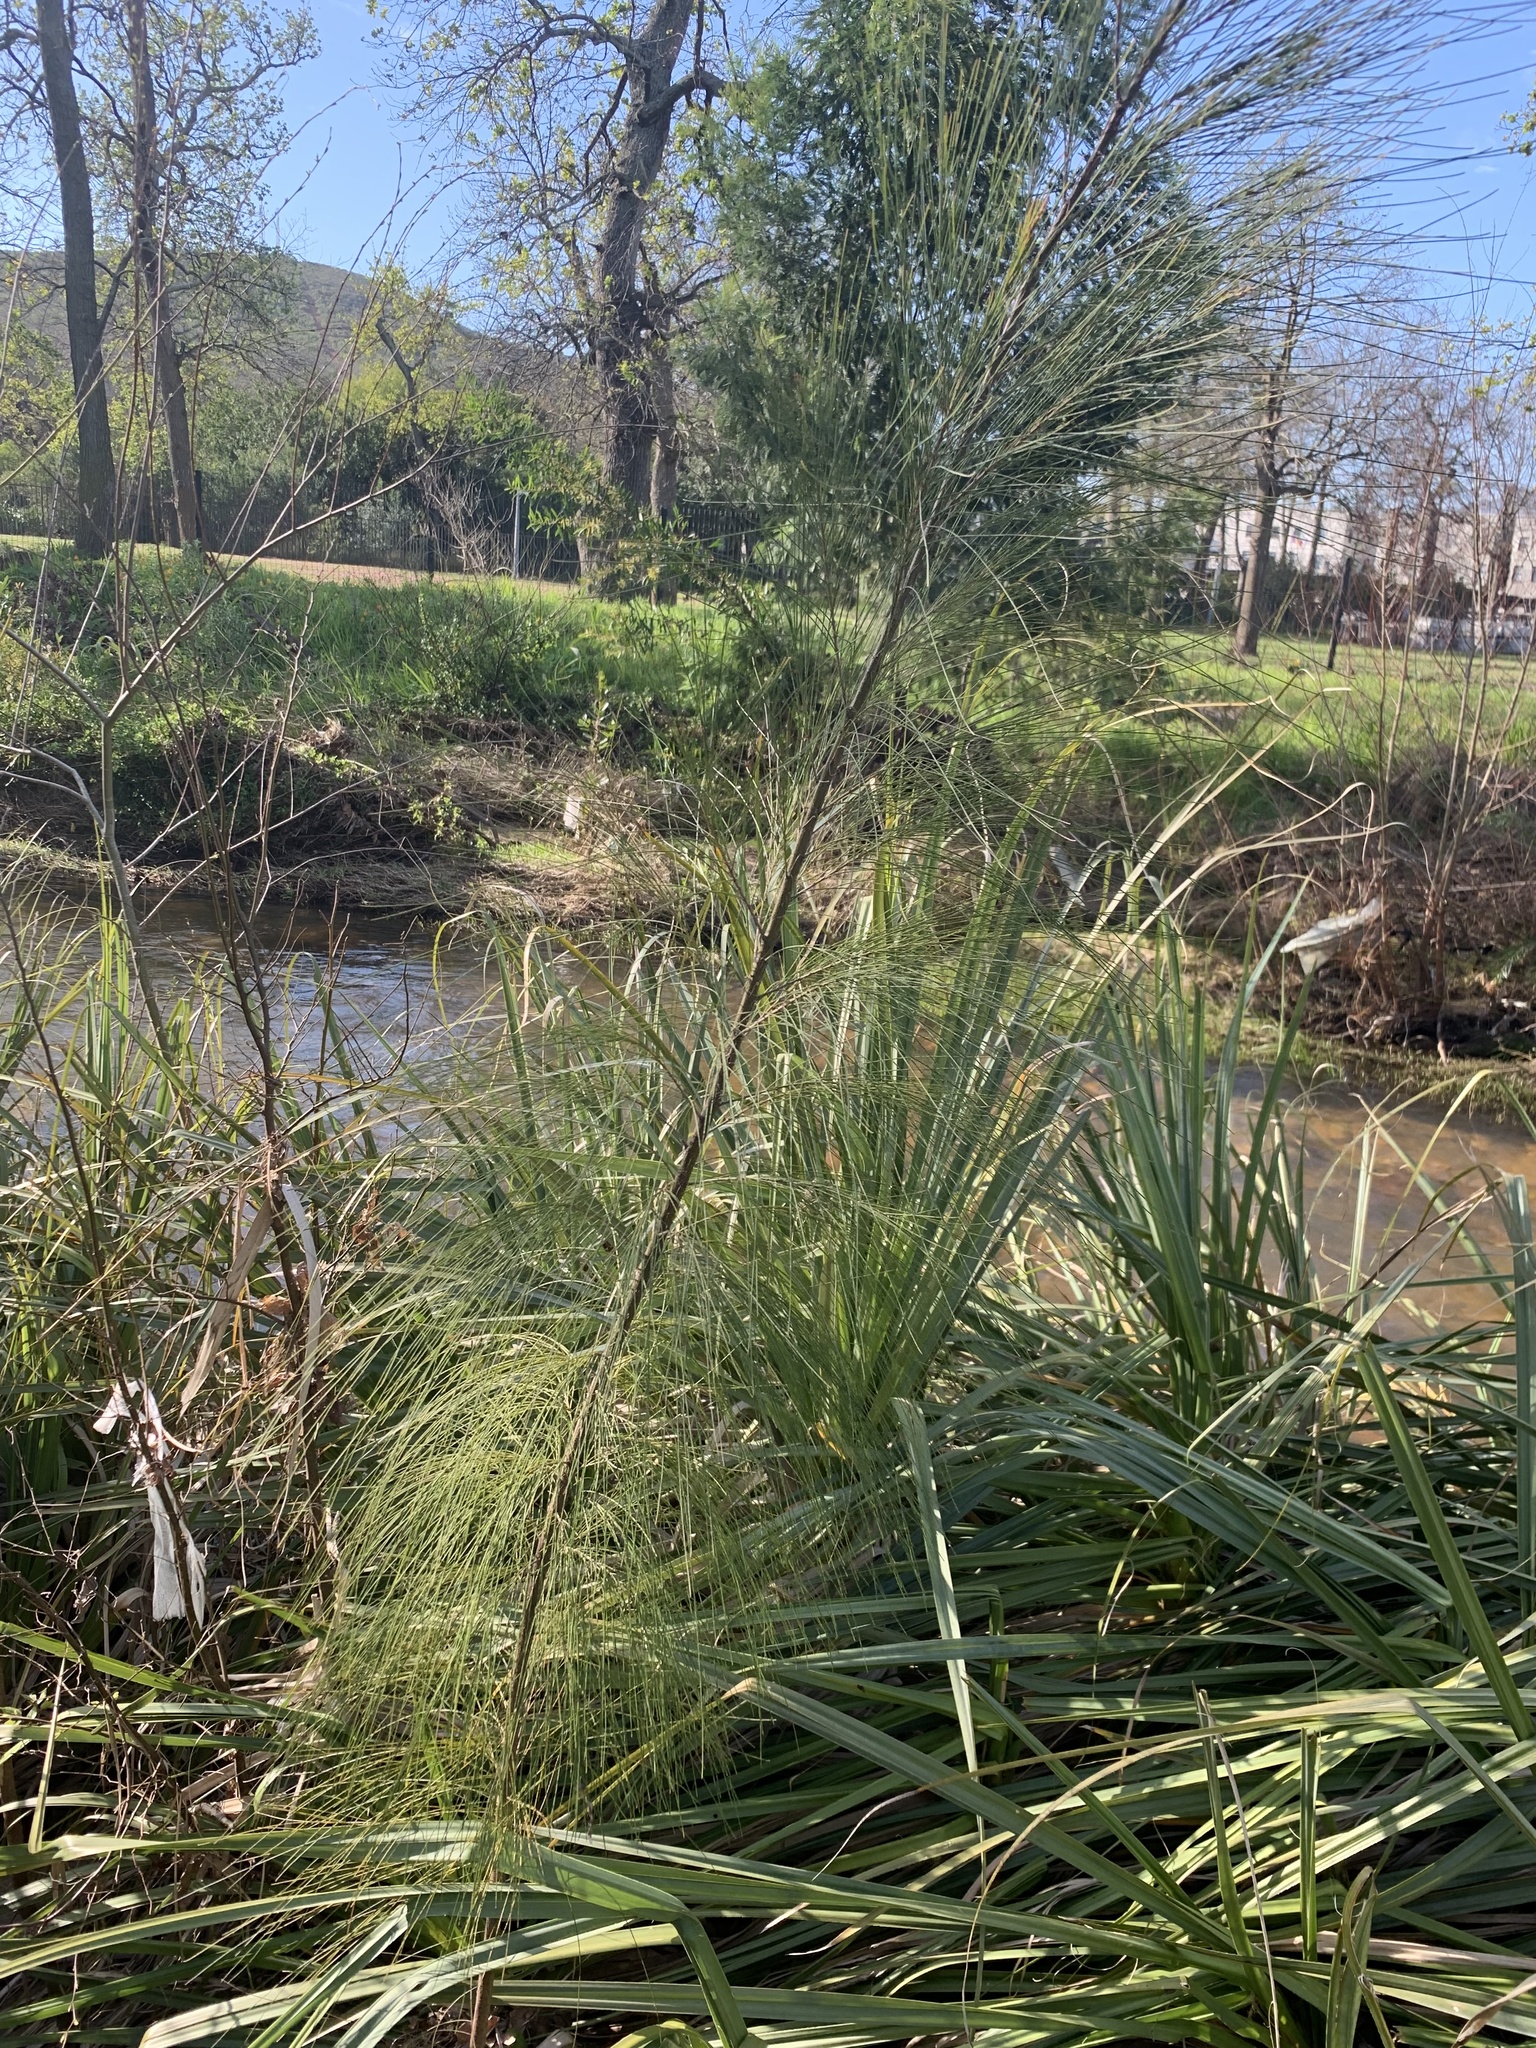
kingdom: Plantae
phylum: Tracheophyta
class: Magnoliopsida
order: Fagales
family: Casuarinaceae
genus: Casuarina
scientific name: Casuarina cunninghamiana
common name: River sheoak
